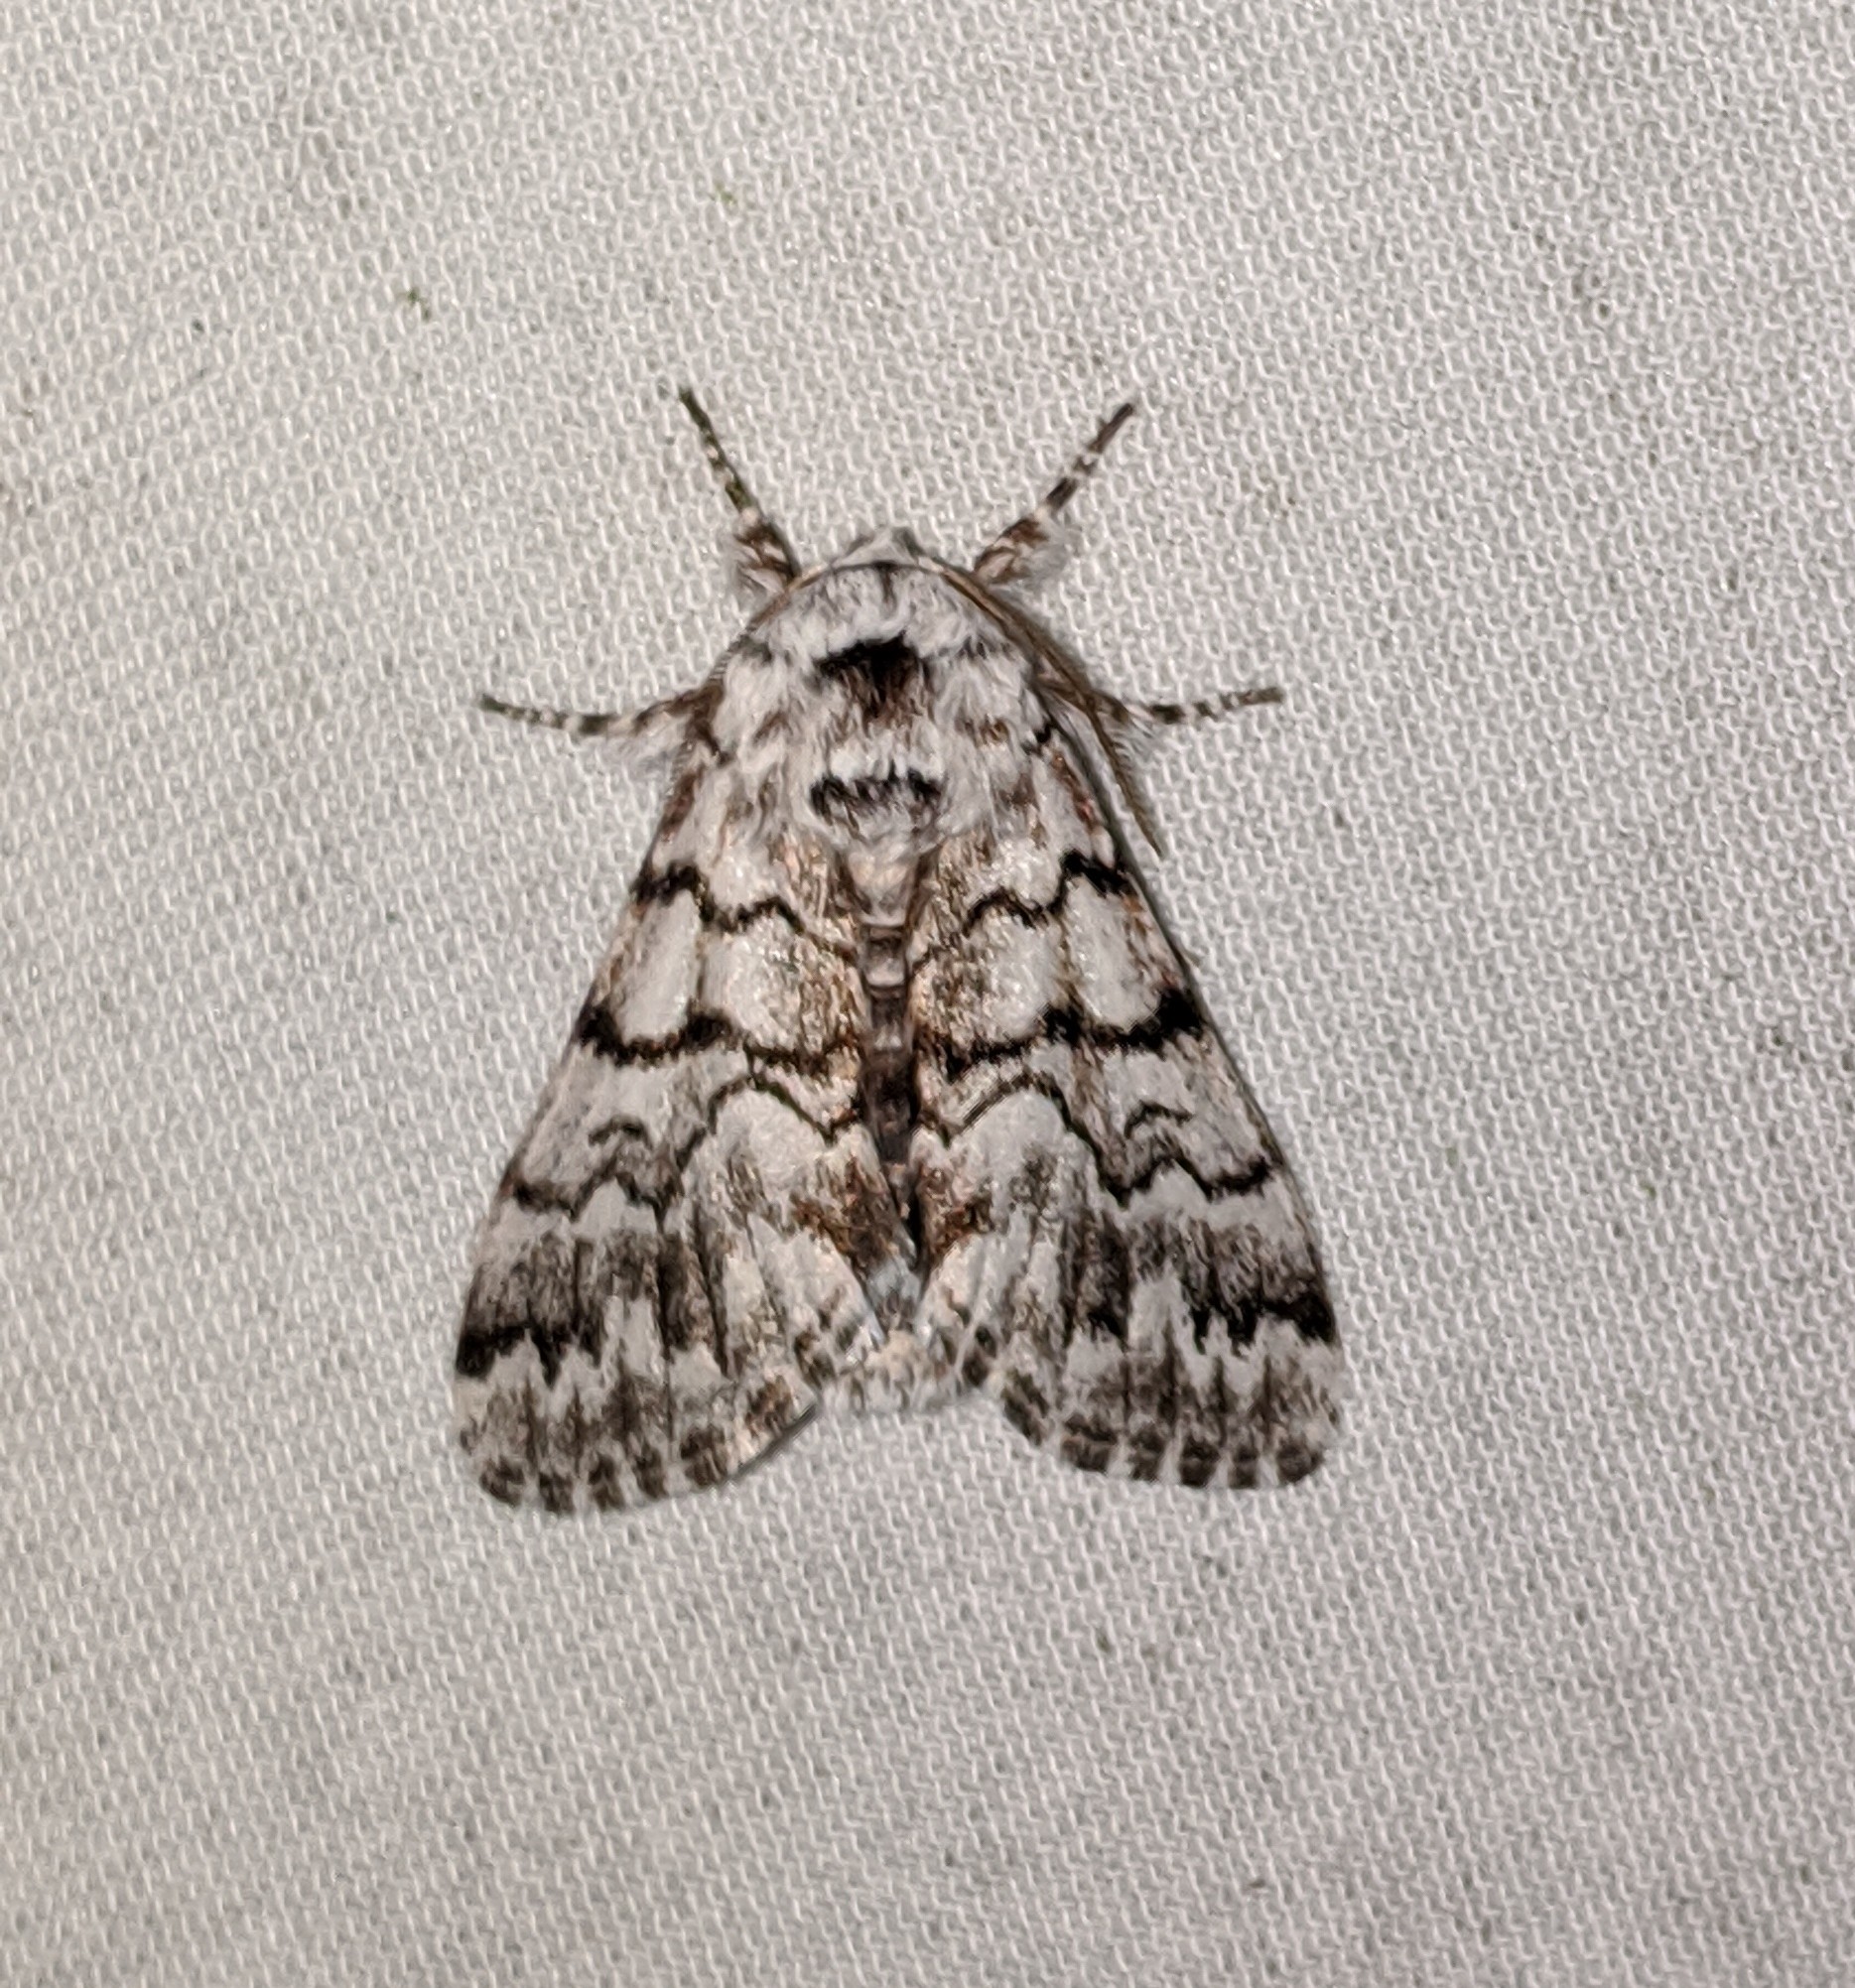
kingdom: Animalia
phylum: Arthropoda
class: Insecta
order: Lepidoptera
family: Noctuidae
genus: Panthea
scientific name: Panthea virginarius
